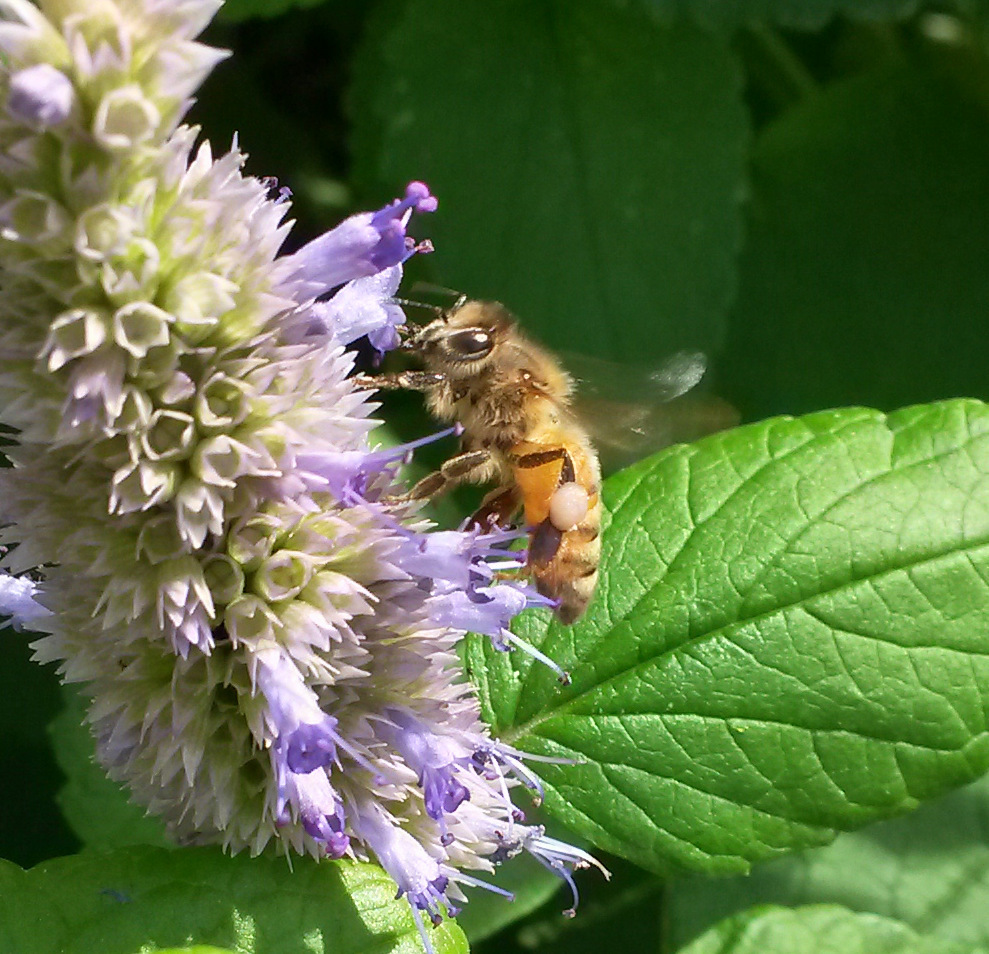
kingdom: Animalia
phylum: Arthropoda
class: Insecta
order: Hymenoptera
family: Apidae
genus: Apis
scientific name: Apis mellifera
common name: Honey bee
